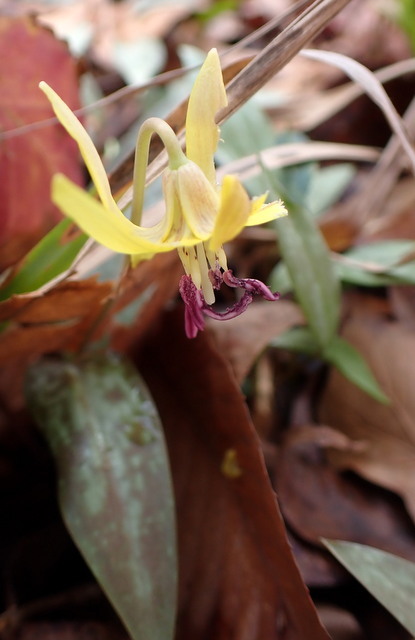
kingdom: Plantae
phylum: Tracheophyta
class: Liliopsida
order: Liliales
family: Liliaceae
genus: Erythronium
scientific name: Erythronium umbilicatum
